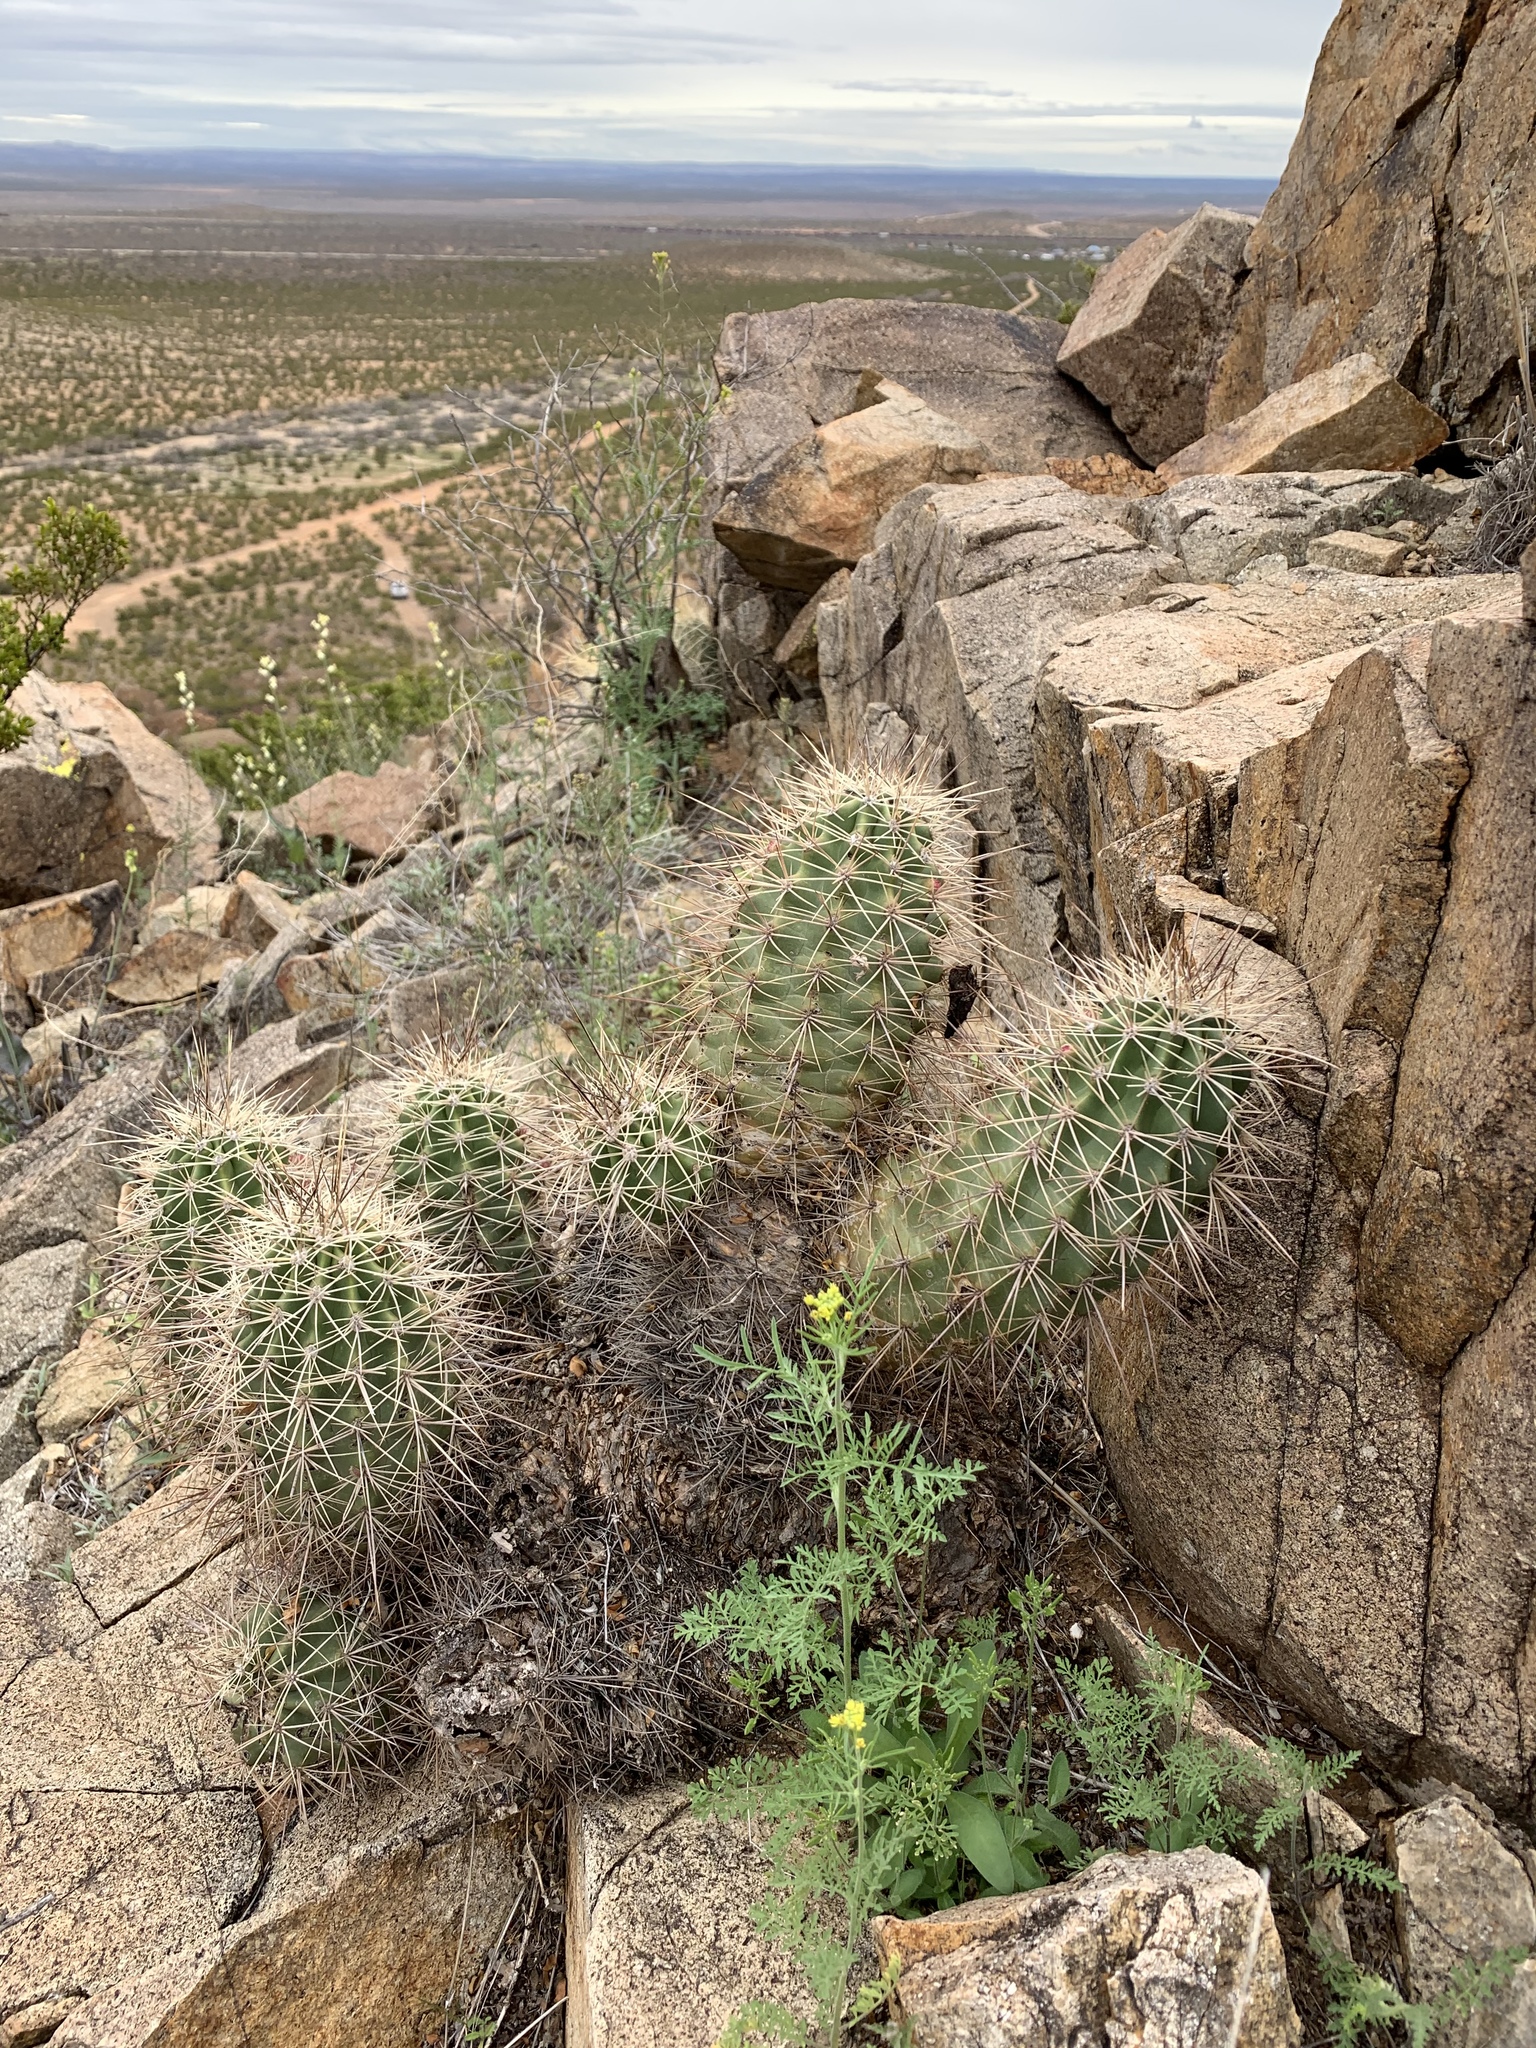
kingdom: Plantae
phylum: Tracheophyta
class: Magnoliopsida
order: Caryophyllales
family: Cactaceae
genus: Echinocereus
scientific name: Echinocereus coccineus
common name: Scarlet hedgehog cactus
